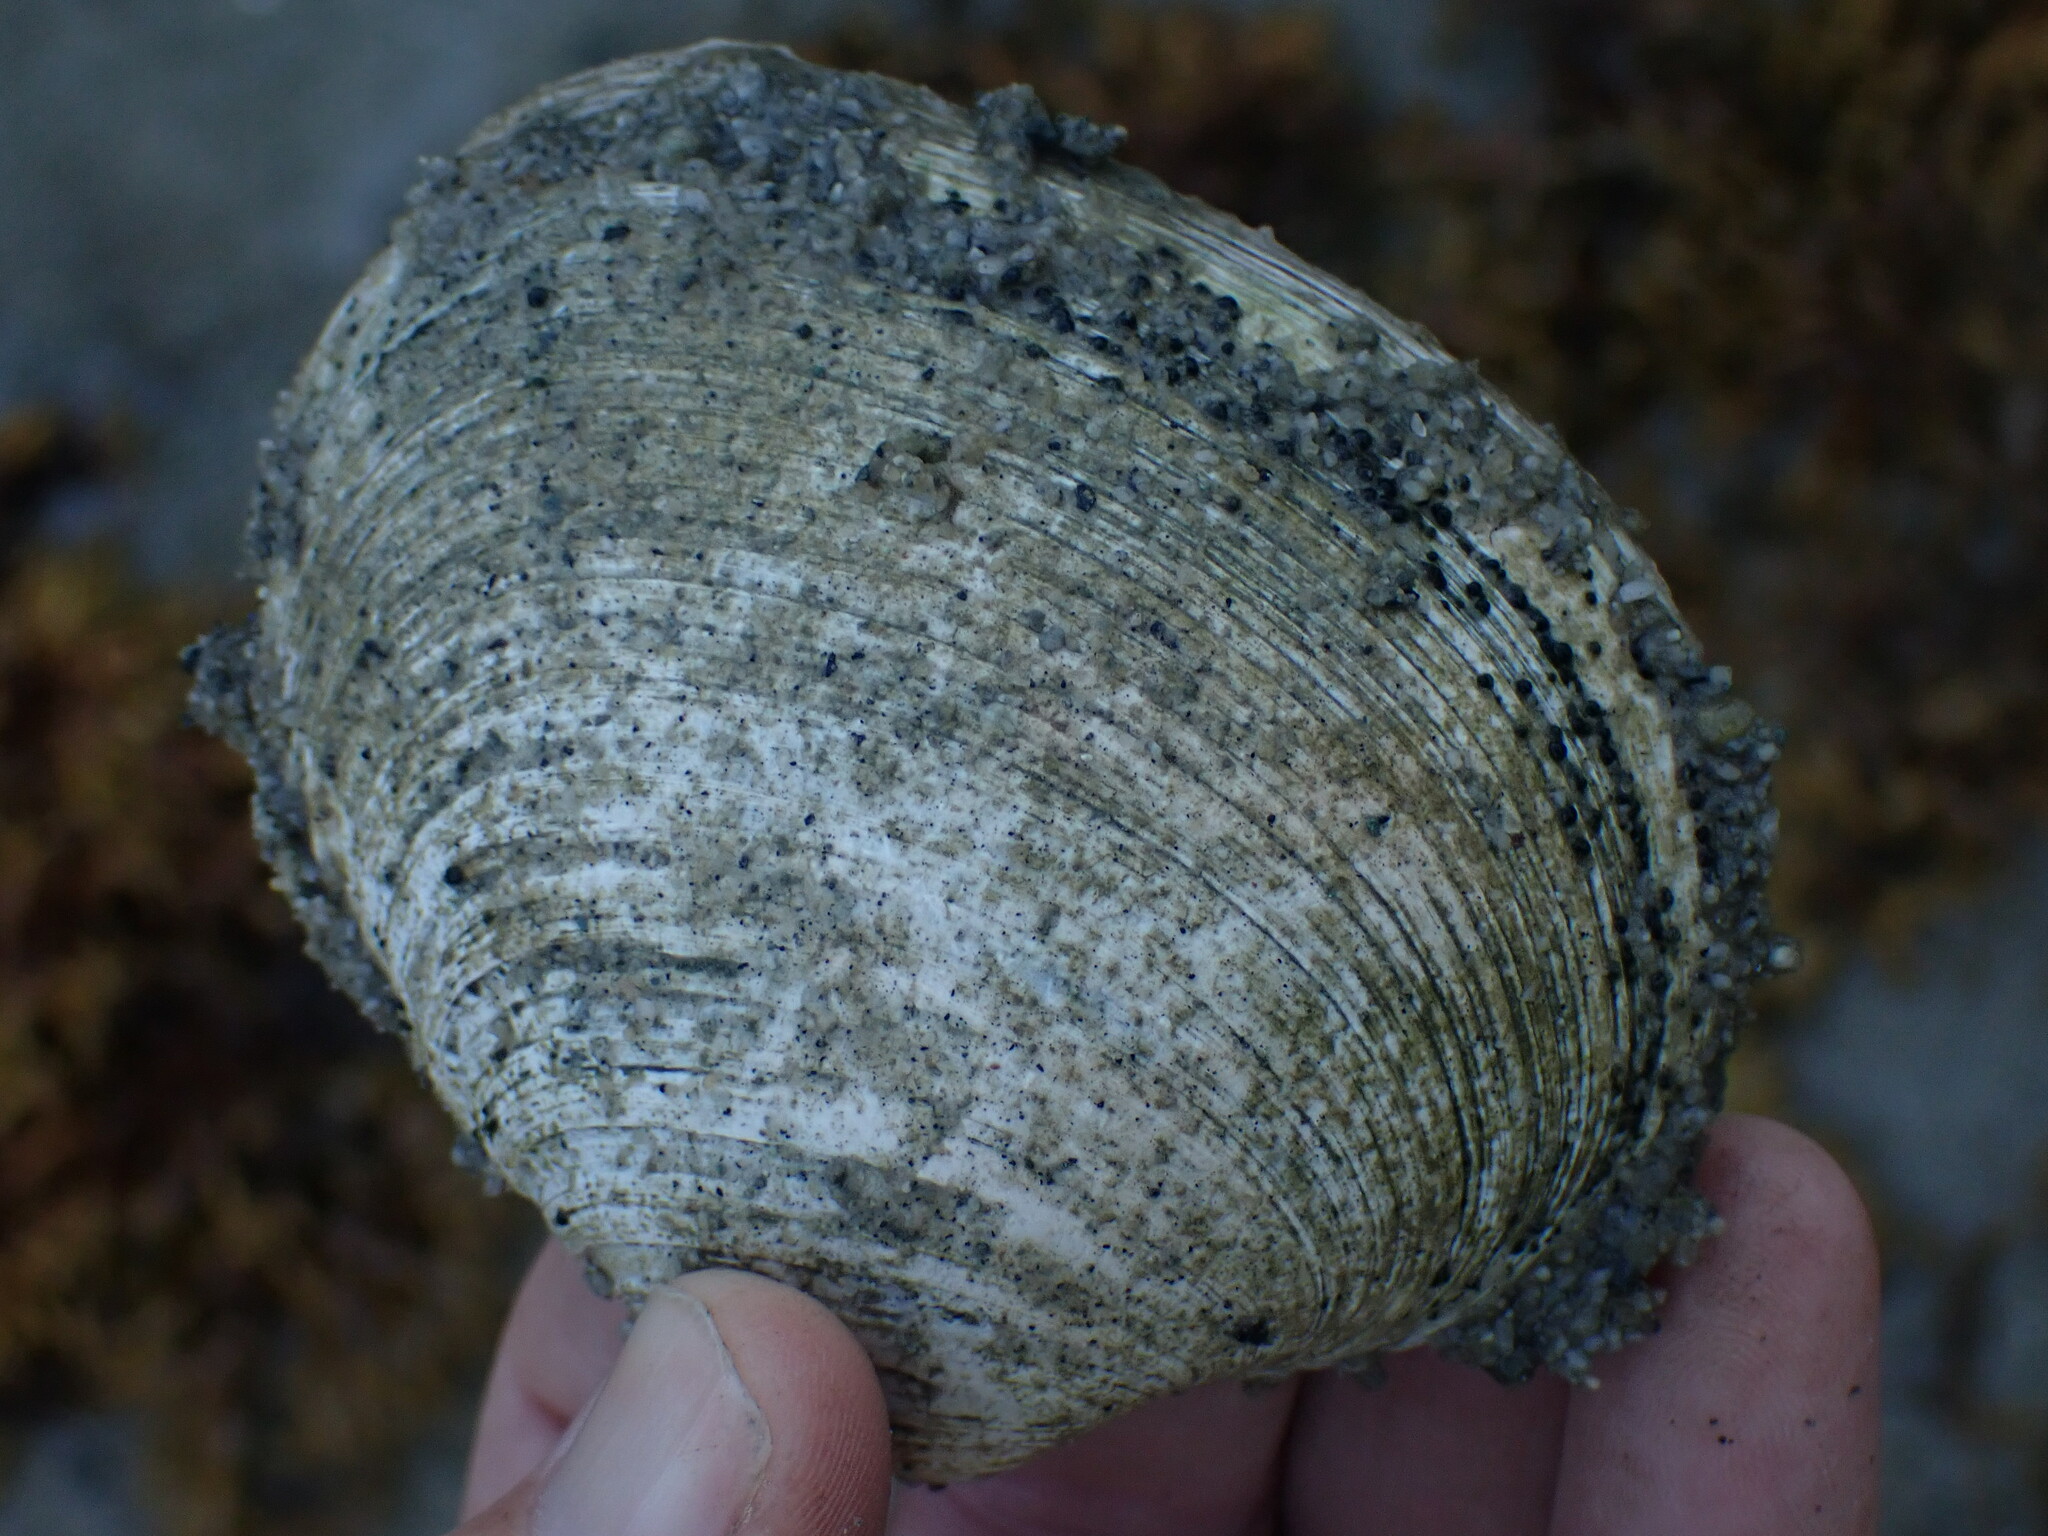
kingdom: Animalia
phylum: Mollusca
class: Bivalvia
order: Venerida
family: Veneridae
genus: Saxidomus
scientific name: Saxidomus gigantea
